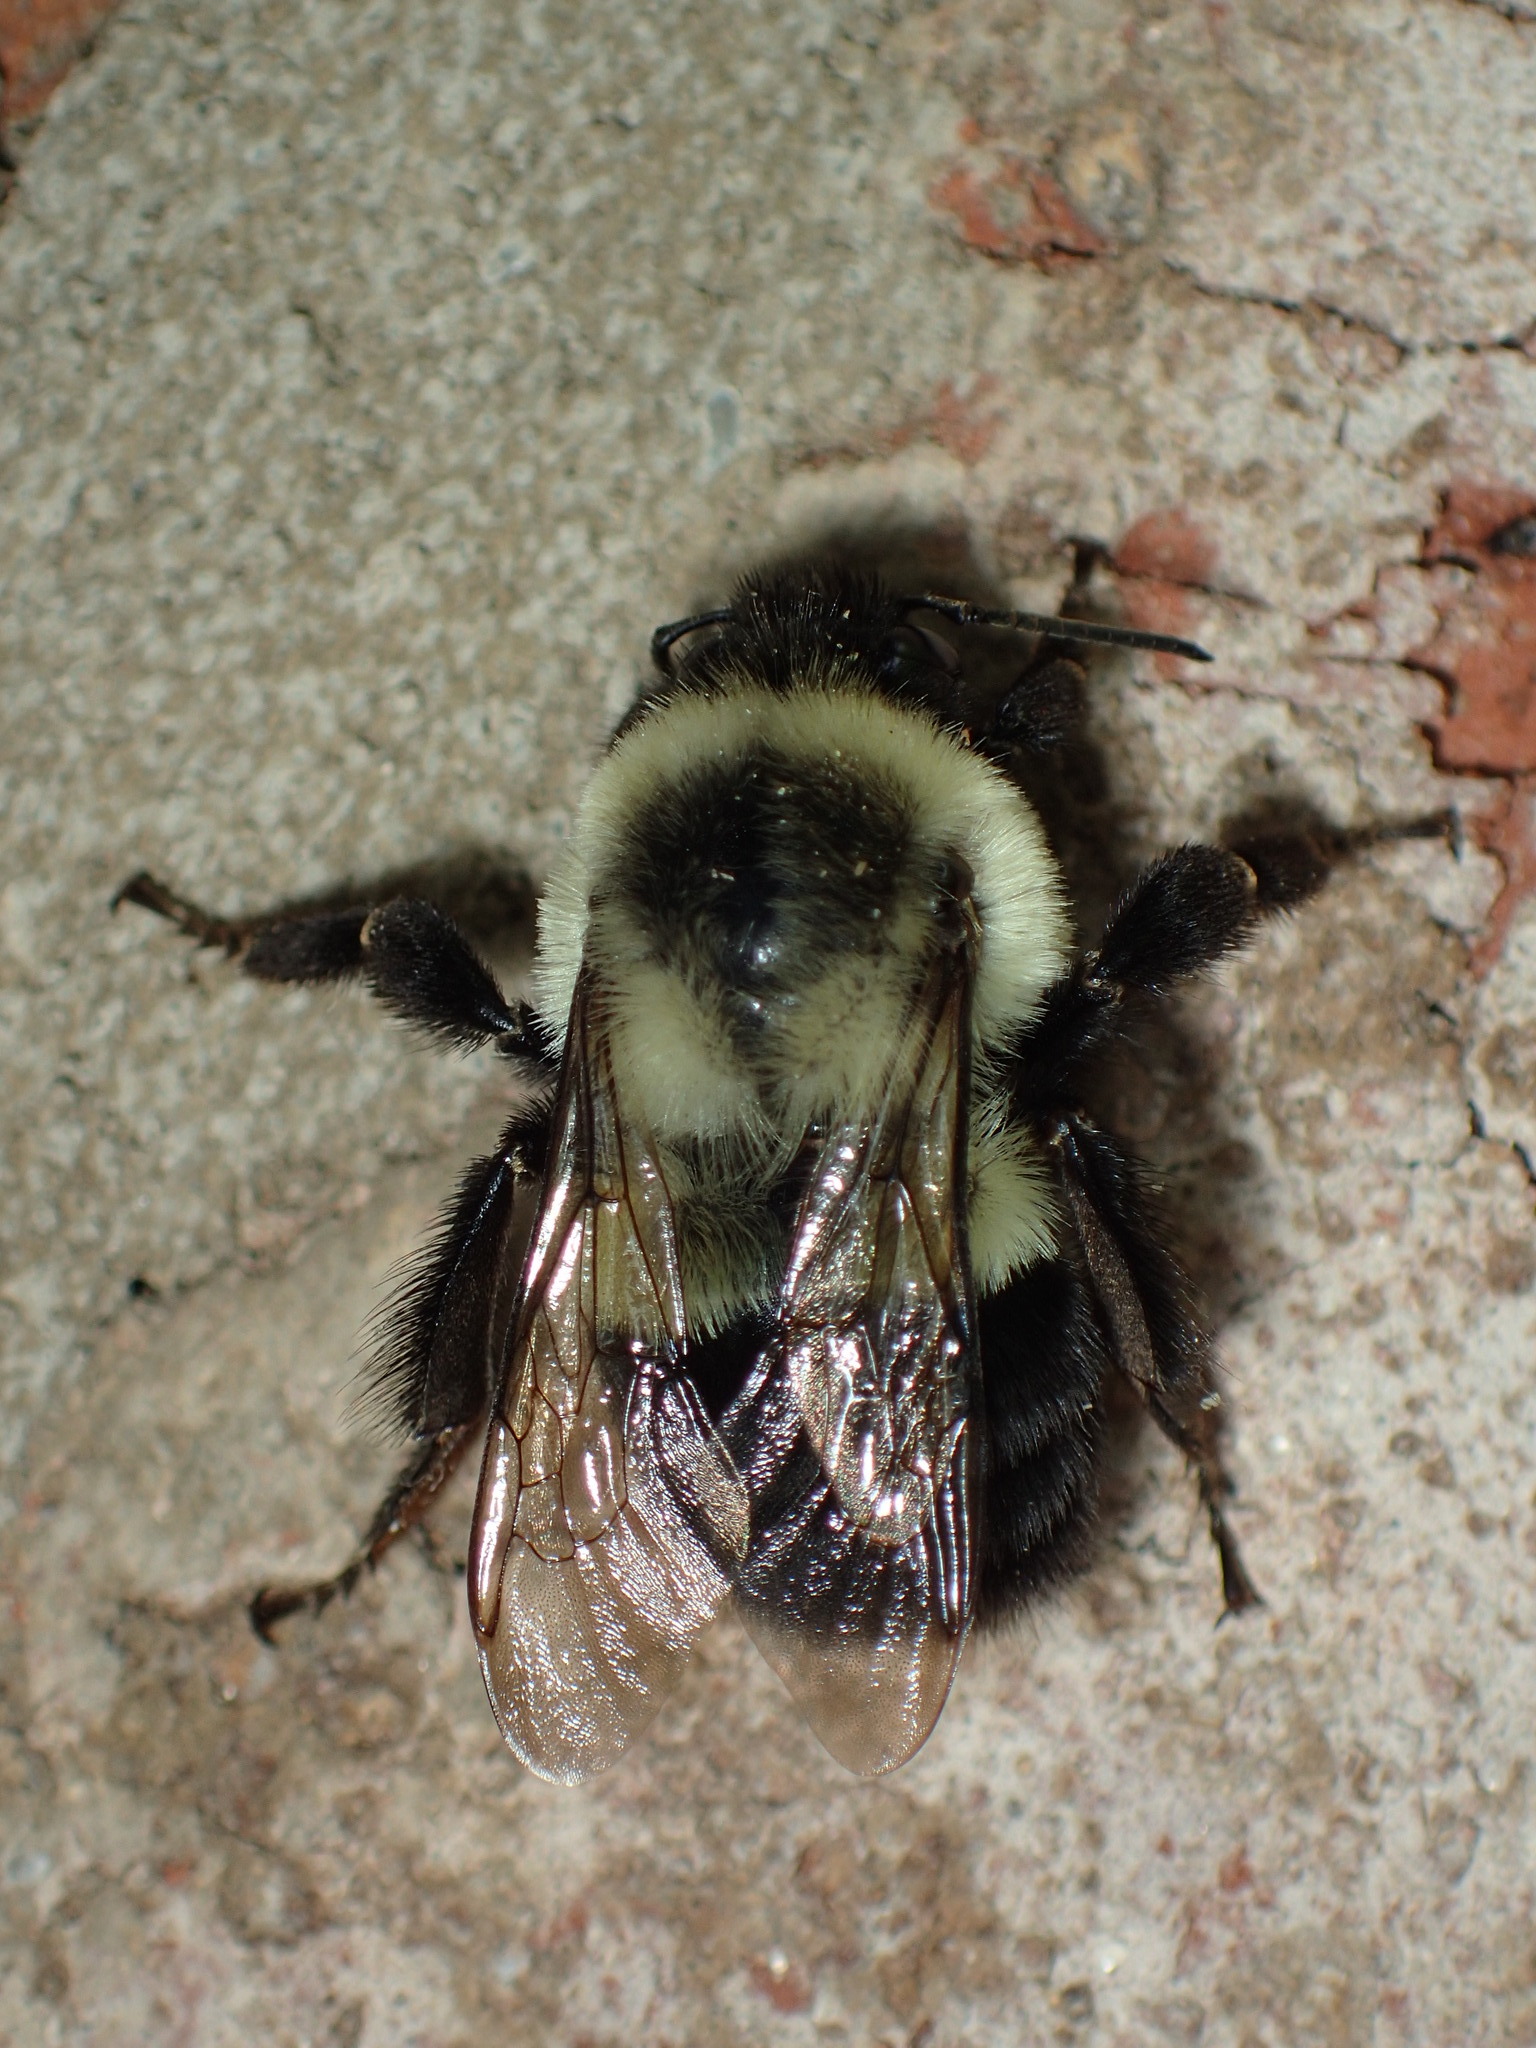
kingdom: Animalia
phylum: Arthropoda
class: Insecta
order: Hymenoptera
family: Apidae
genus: Bombus
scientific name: Bombus impatiens
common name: Common eastern bumble bee
